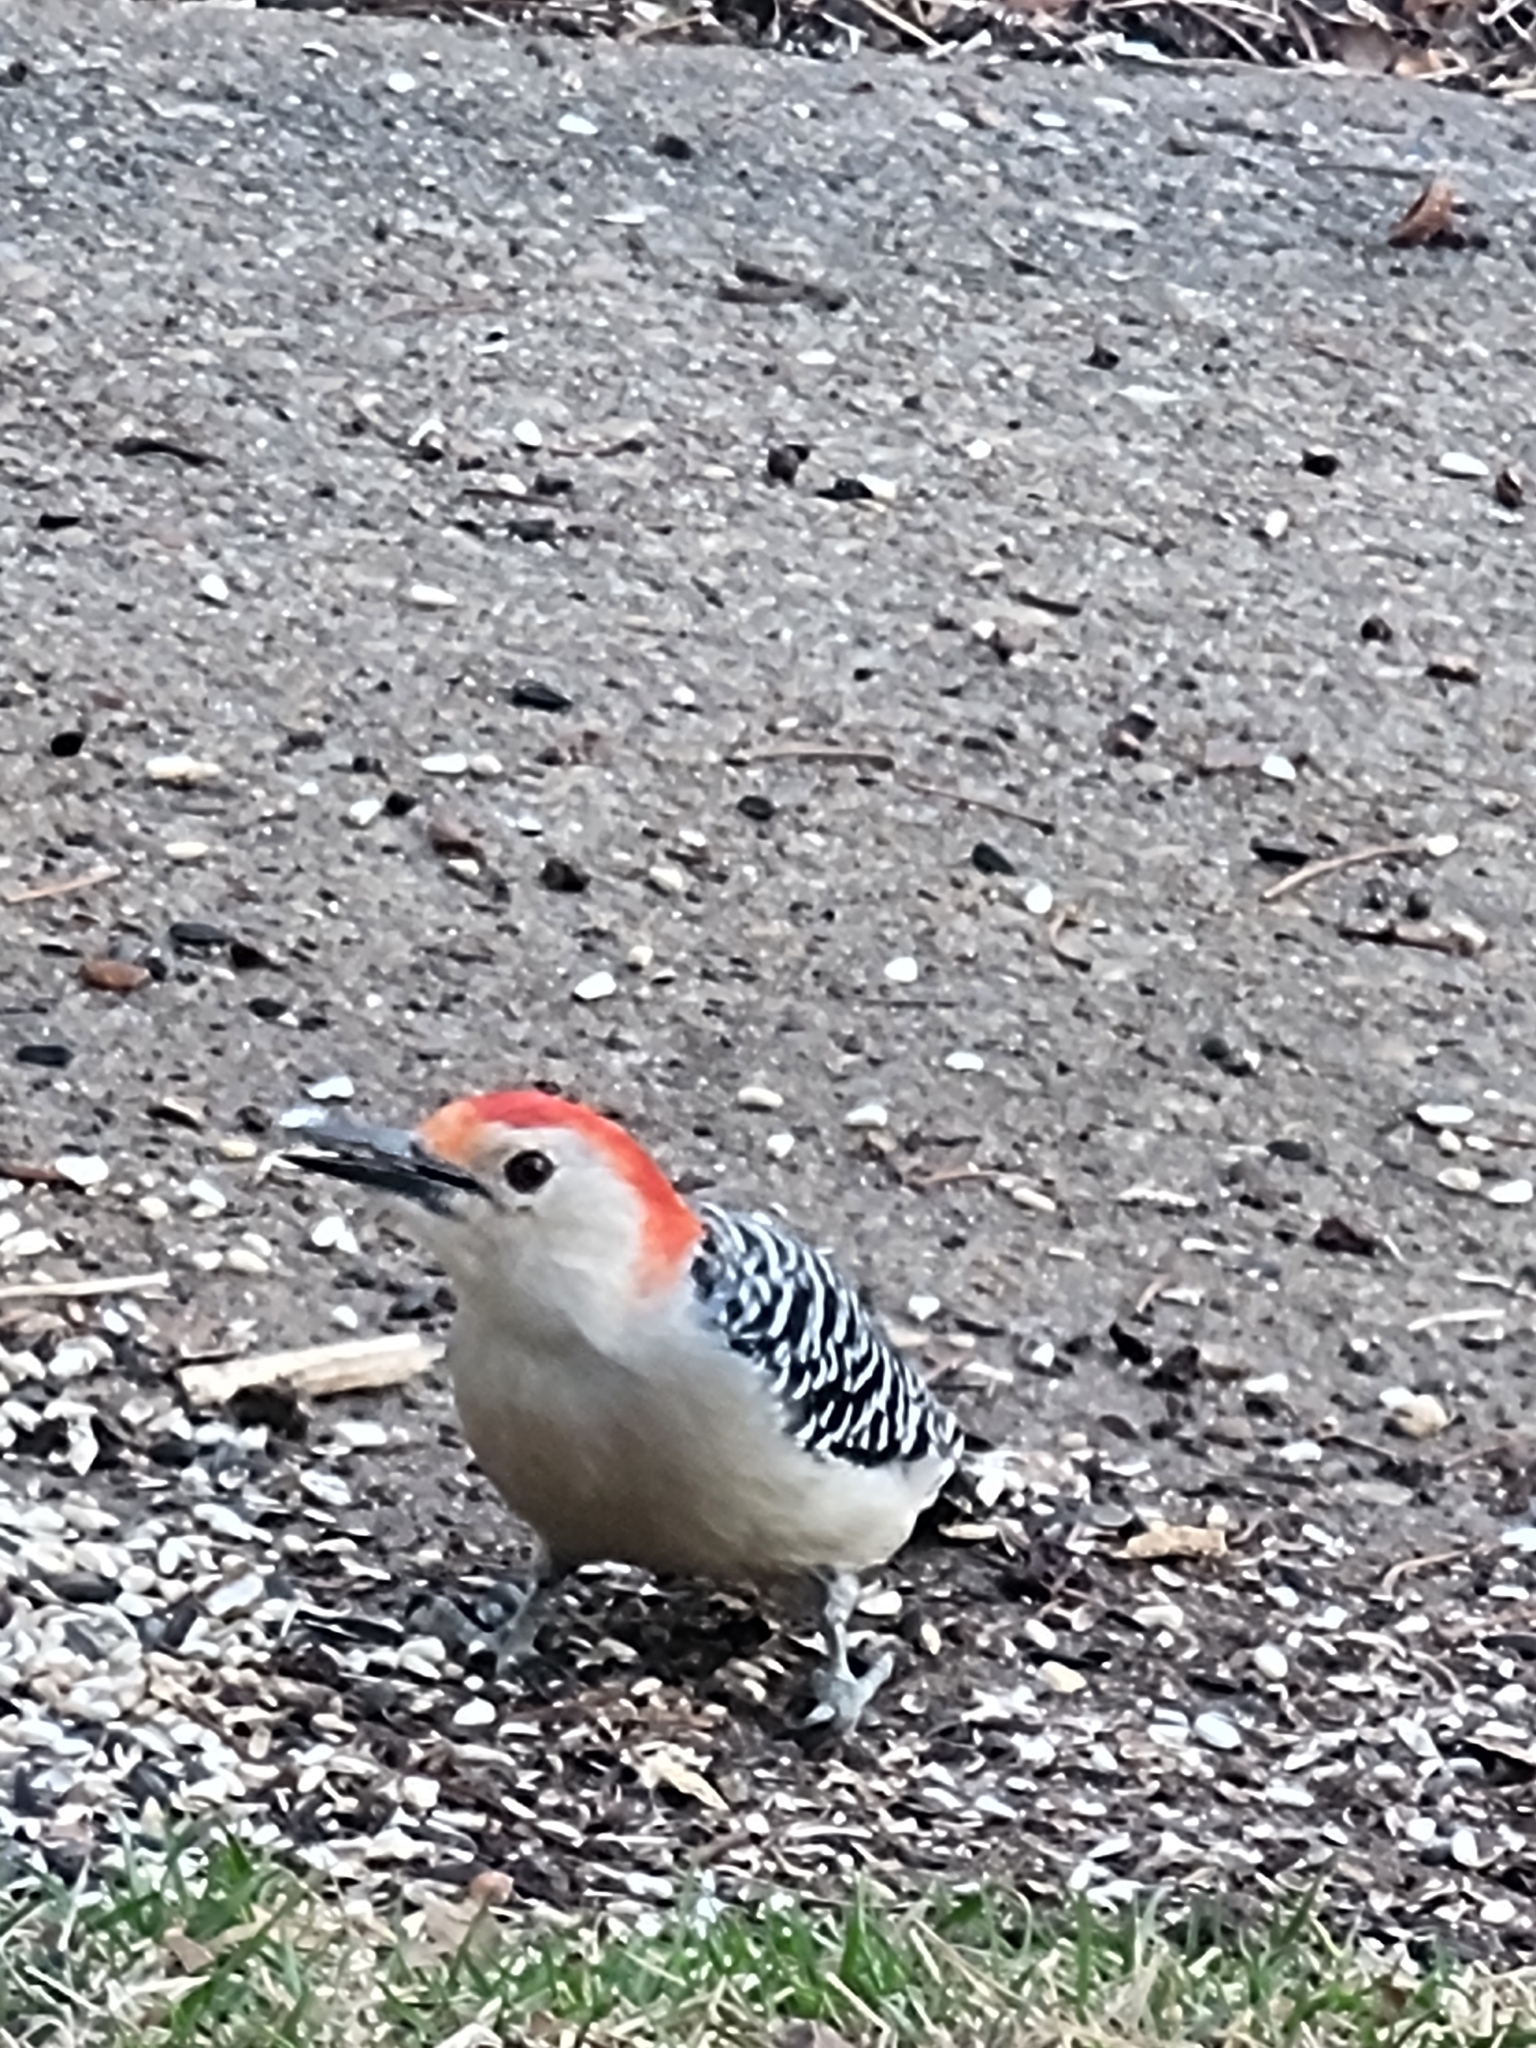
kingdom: Animalia
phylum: Chordata
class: Aves
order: Piciformes
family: Picidae
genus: Melanerpes
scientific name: Melanerpes carolinus
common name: Red-bellied woodpecker
